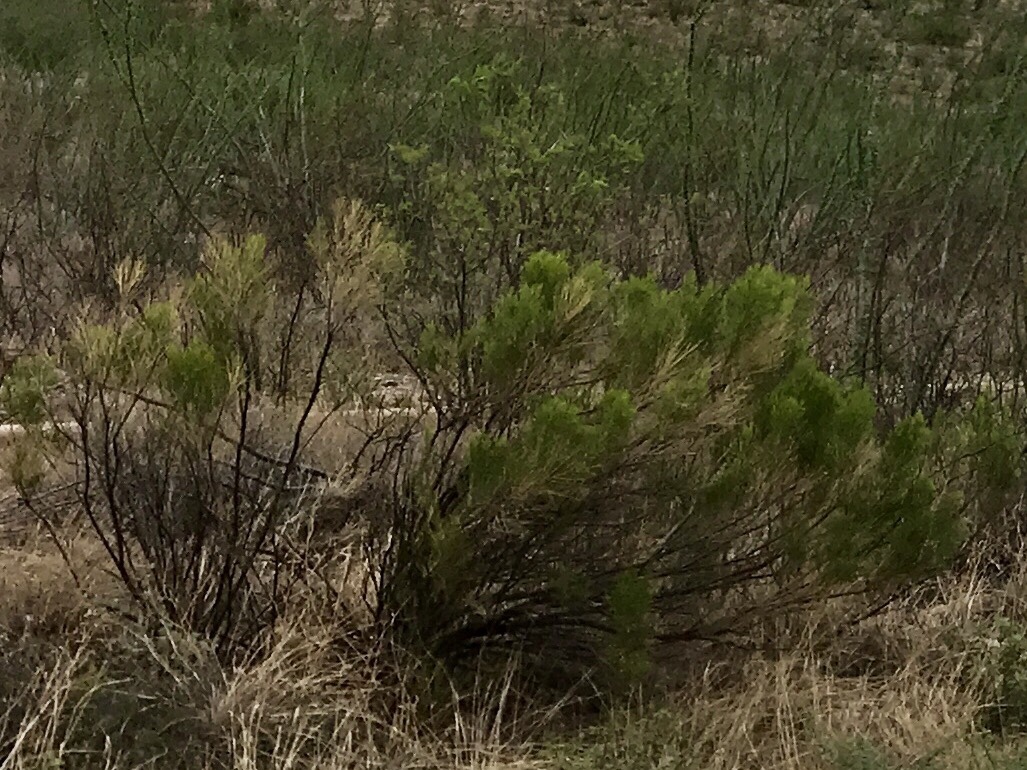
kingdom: Plantae
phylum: Tracheophyta
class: Magnoliopsida
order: Asterales
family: Asteraceae
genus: Baccharis
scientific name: Baccharis sarothroides
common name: Desert-broom
